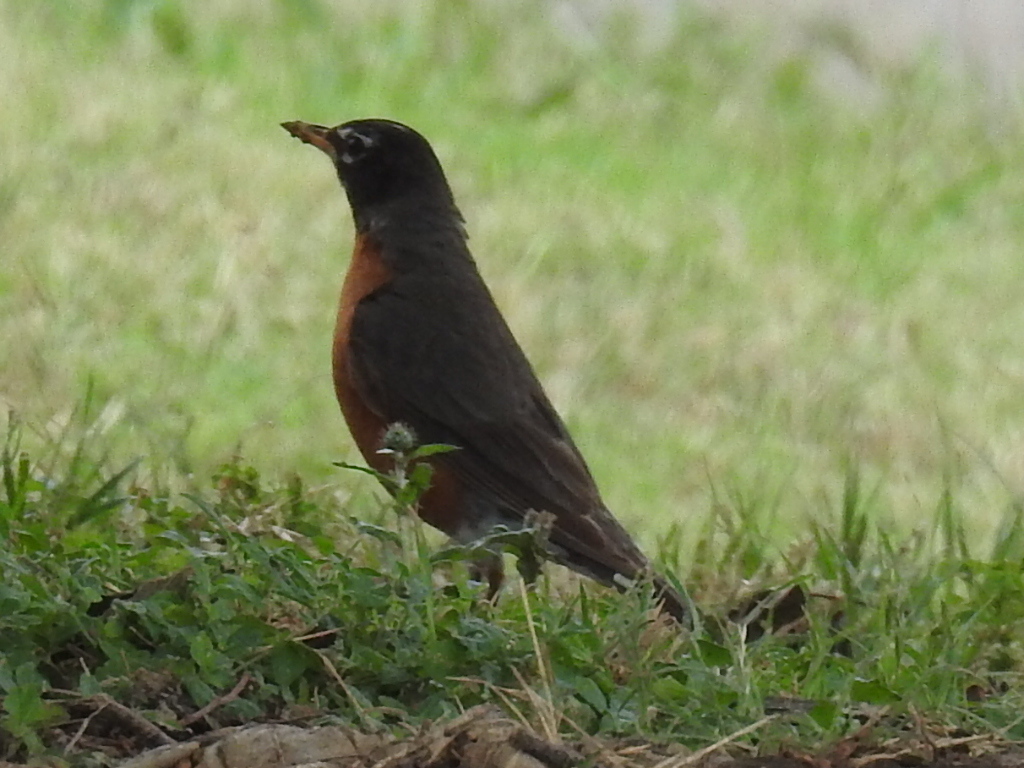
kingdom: Animalia
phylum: Chordata
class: Aves
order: Passeriformes
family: Turdidae
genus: Turdus
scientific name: Turdus migratorius
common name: American robin
